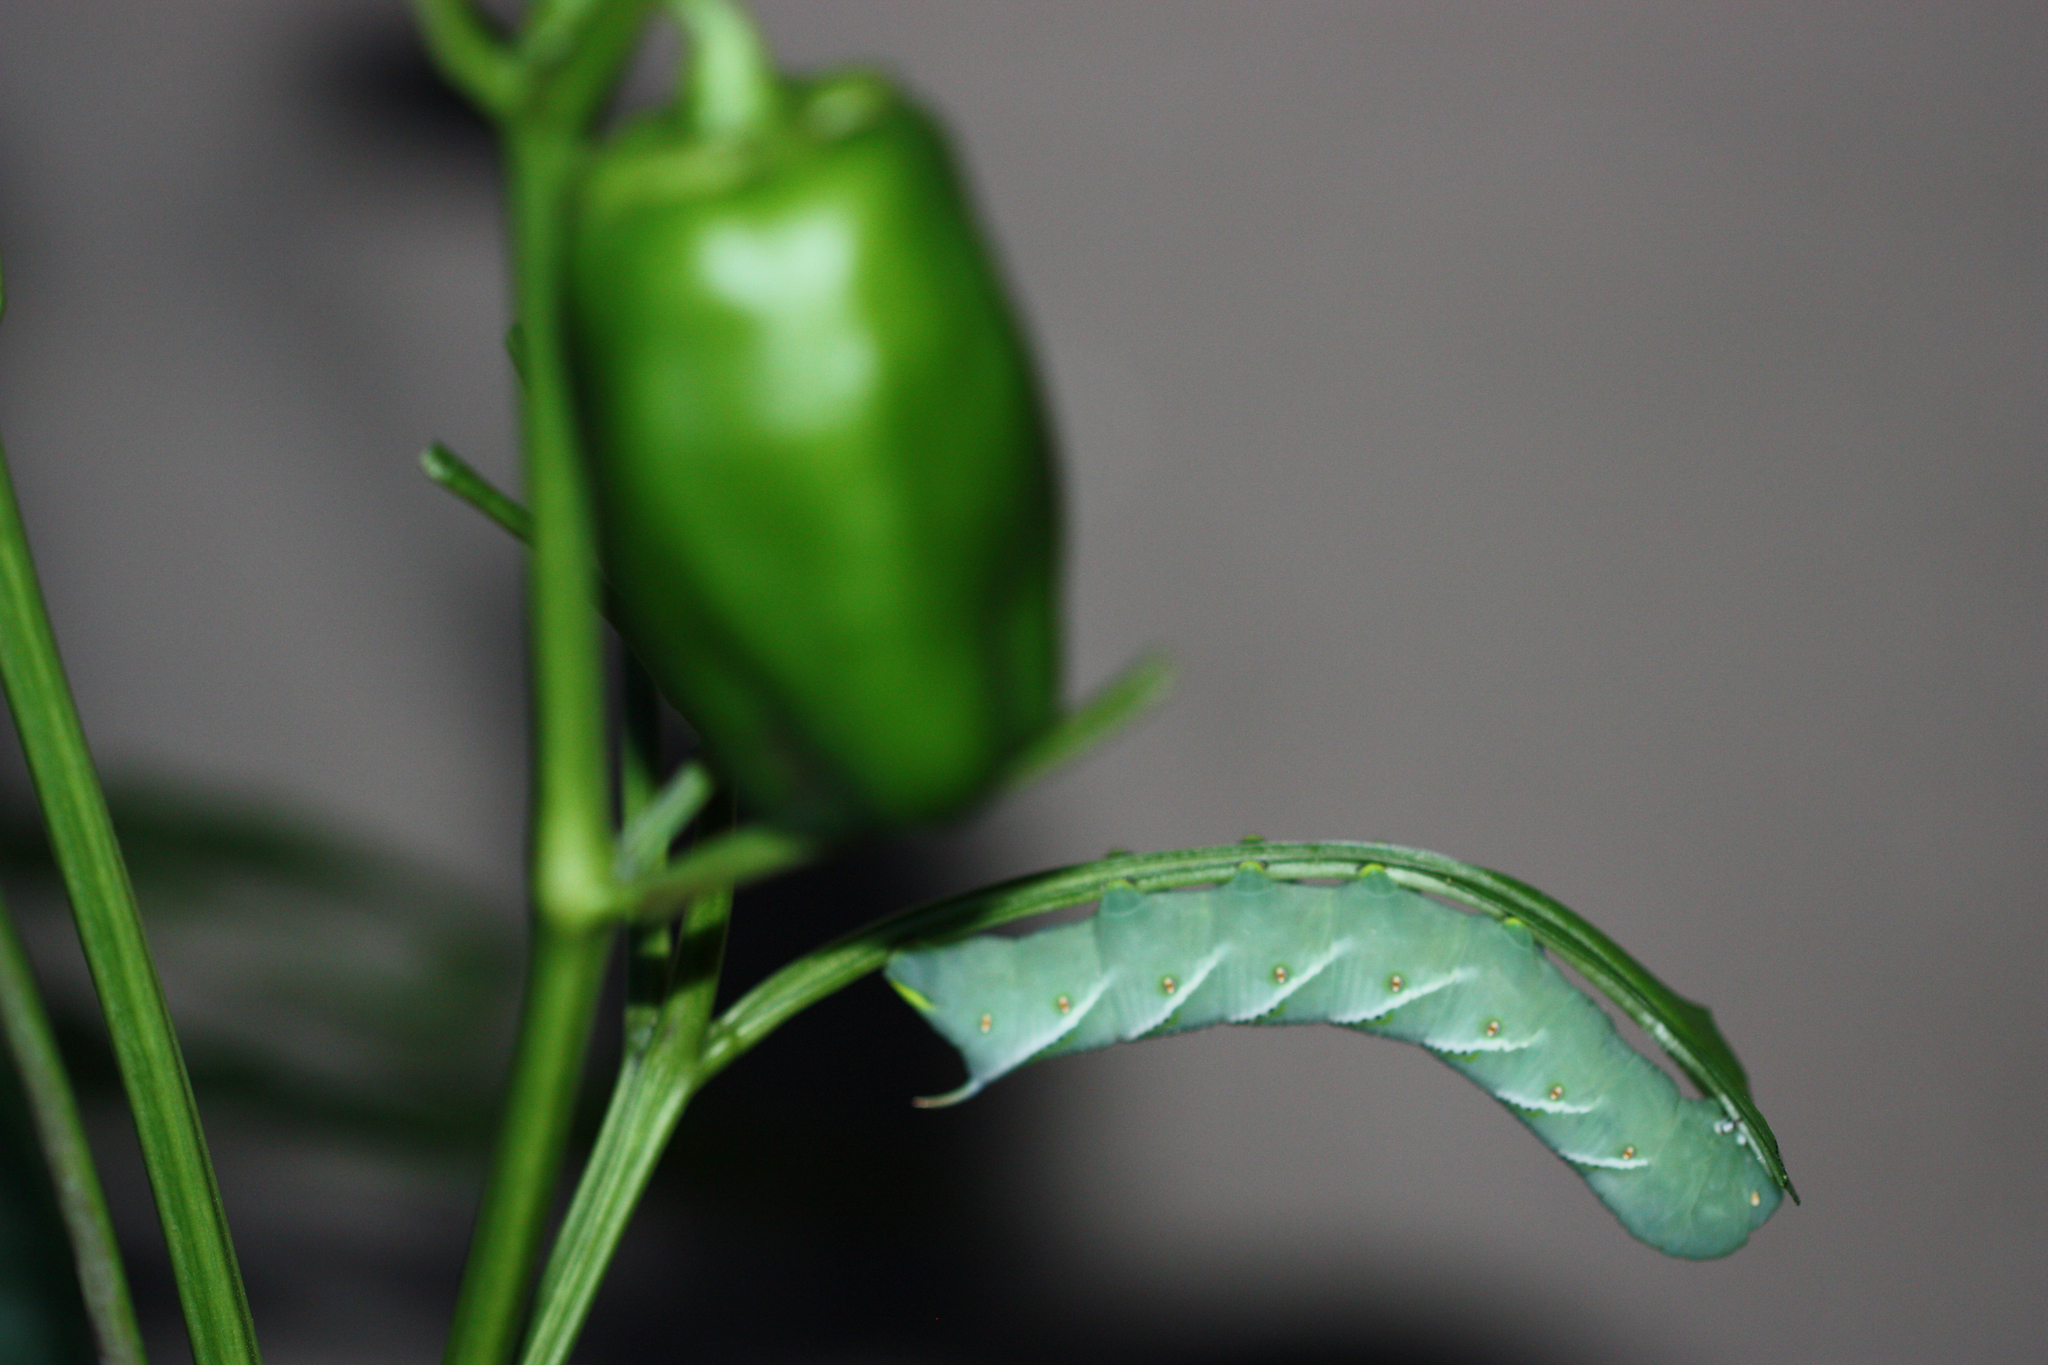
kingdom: Animalia
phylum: Arthropoda
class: Insecta
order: Lepidoptera
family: Sphingidae
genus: Manduca
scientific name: Manduca sexta
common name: Carolina sphinx
